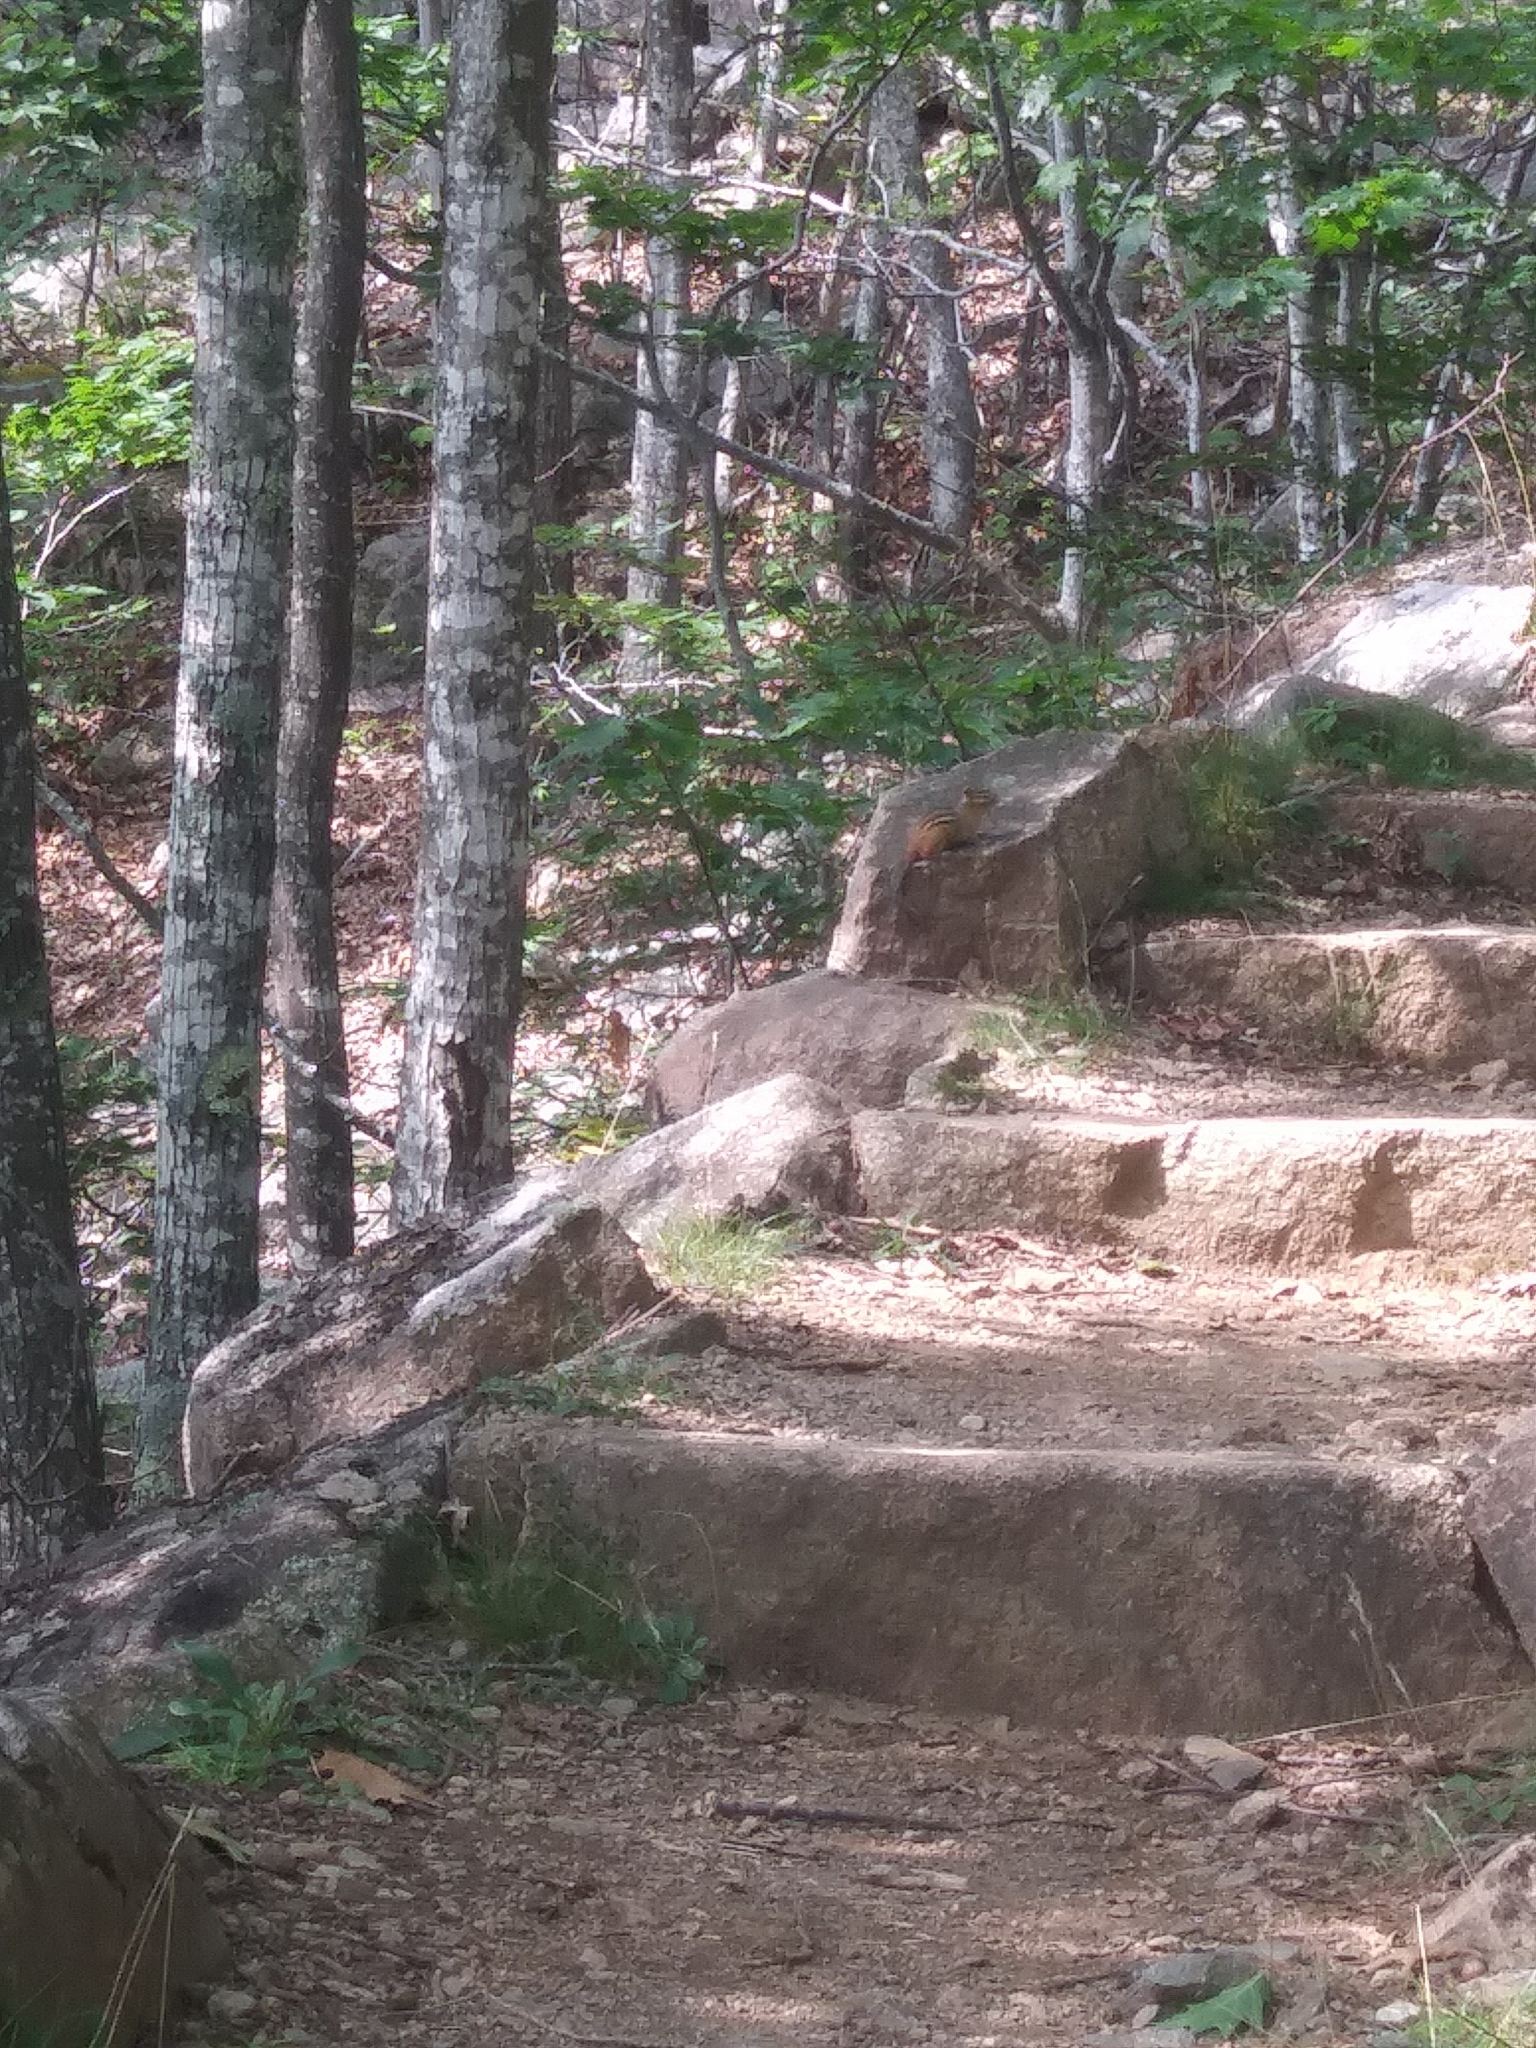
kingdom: Animalia
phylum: Chordata
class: Mammalia
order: Rodentia
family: Sciuridae
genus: Tamias
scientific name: Tamias striatus
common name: Eastern chipmunk
